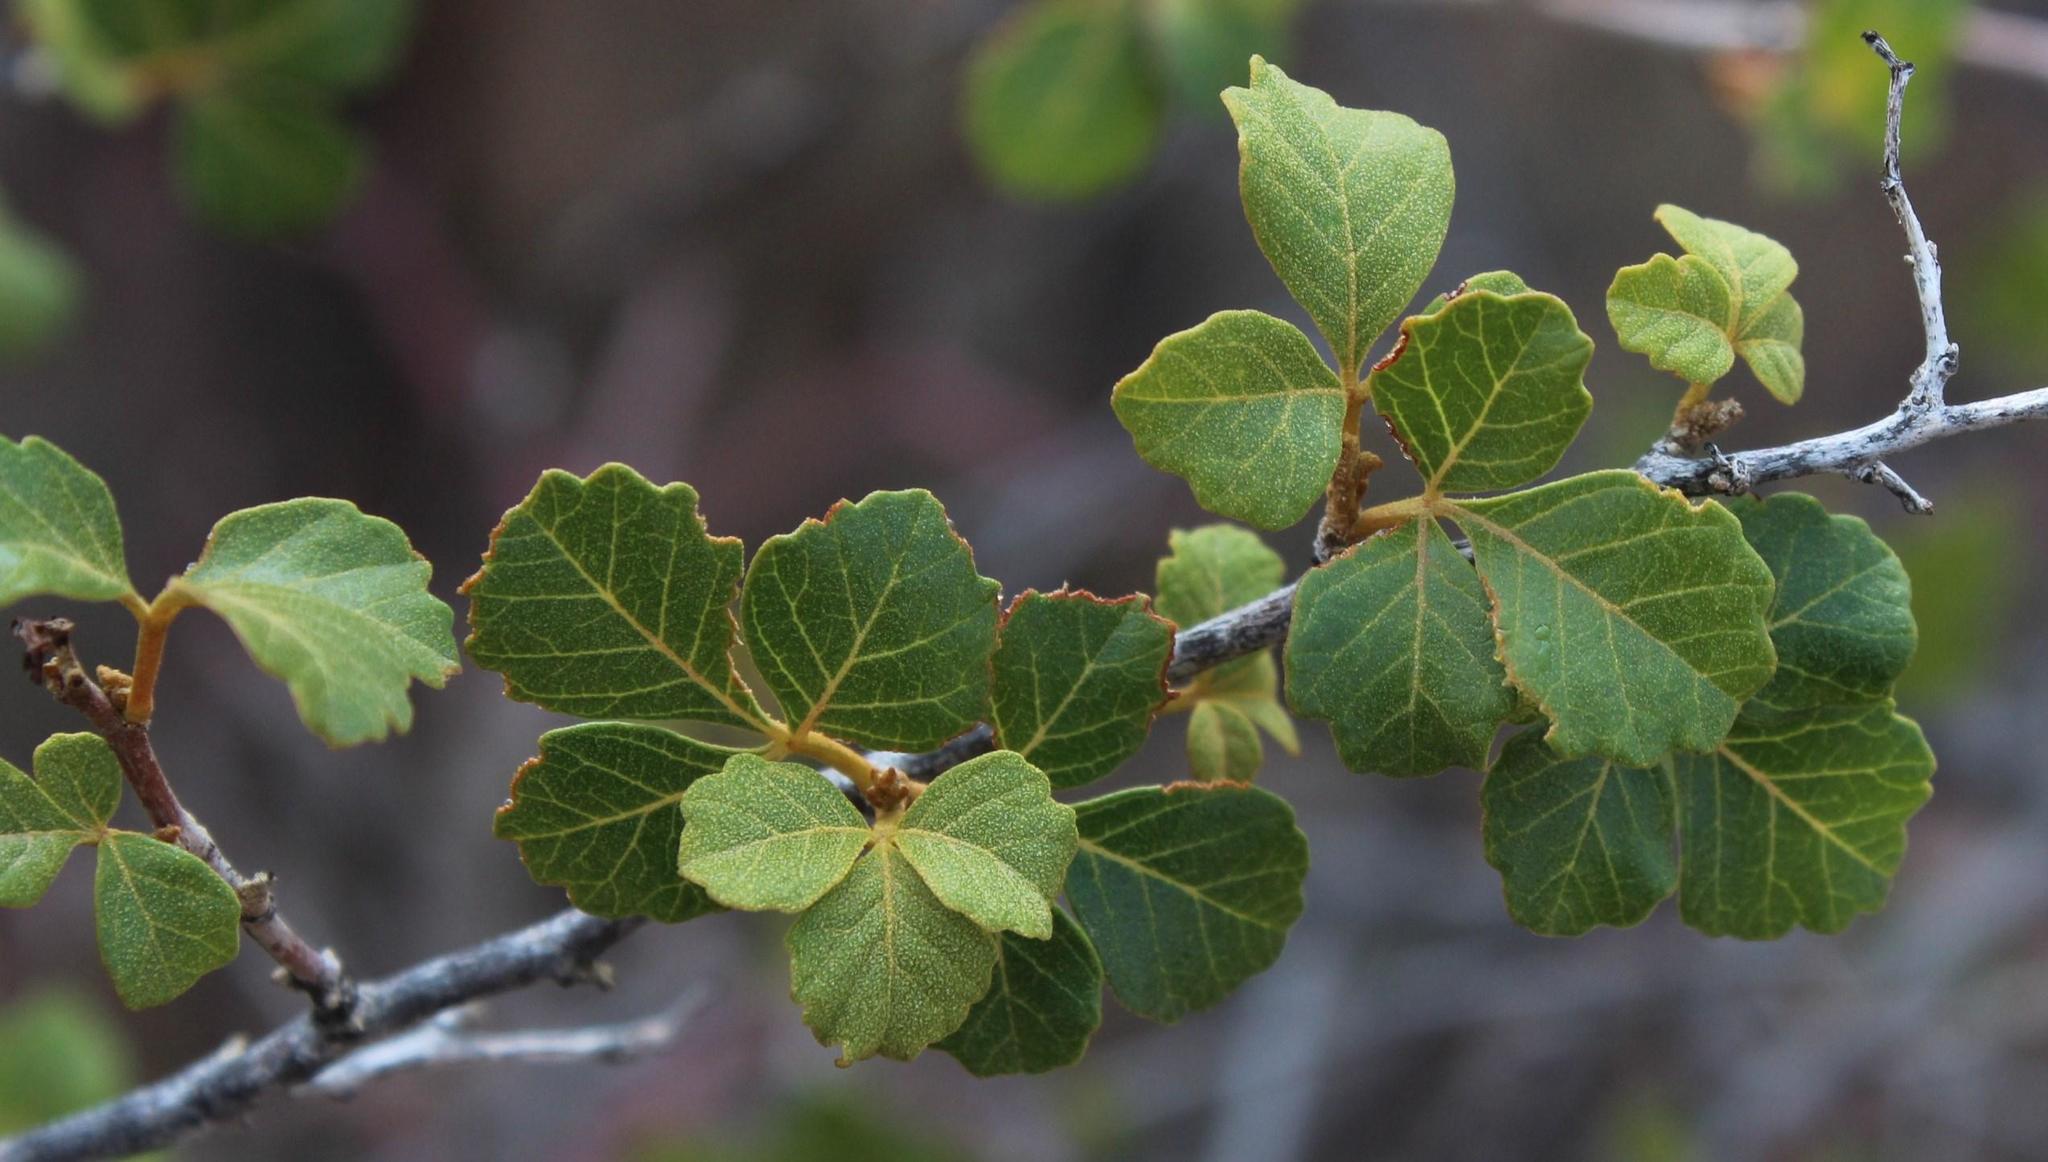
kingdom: Plantae
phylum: Tracheophyta
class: Magnoliopsida
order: Sapindales
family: Anacardiaceae
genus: Searsia
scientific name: Searsia populifolia
